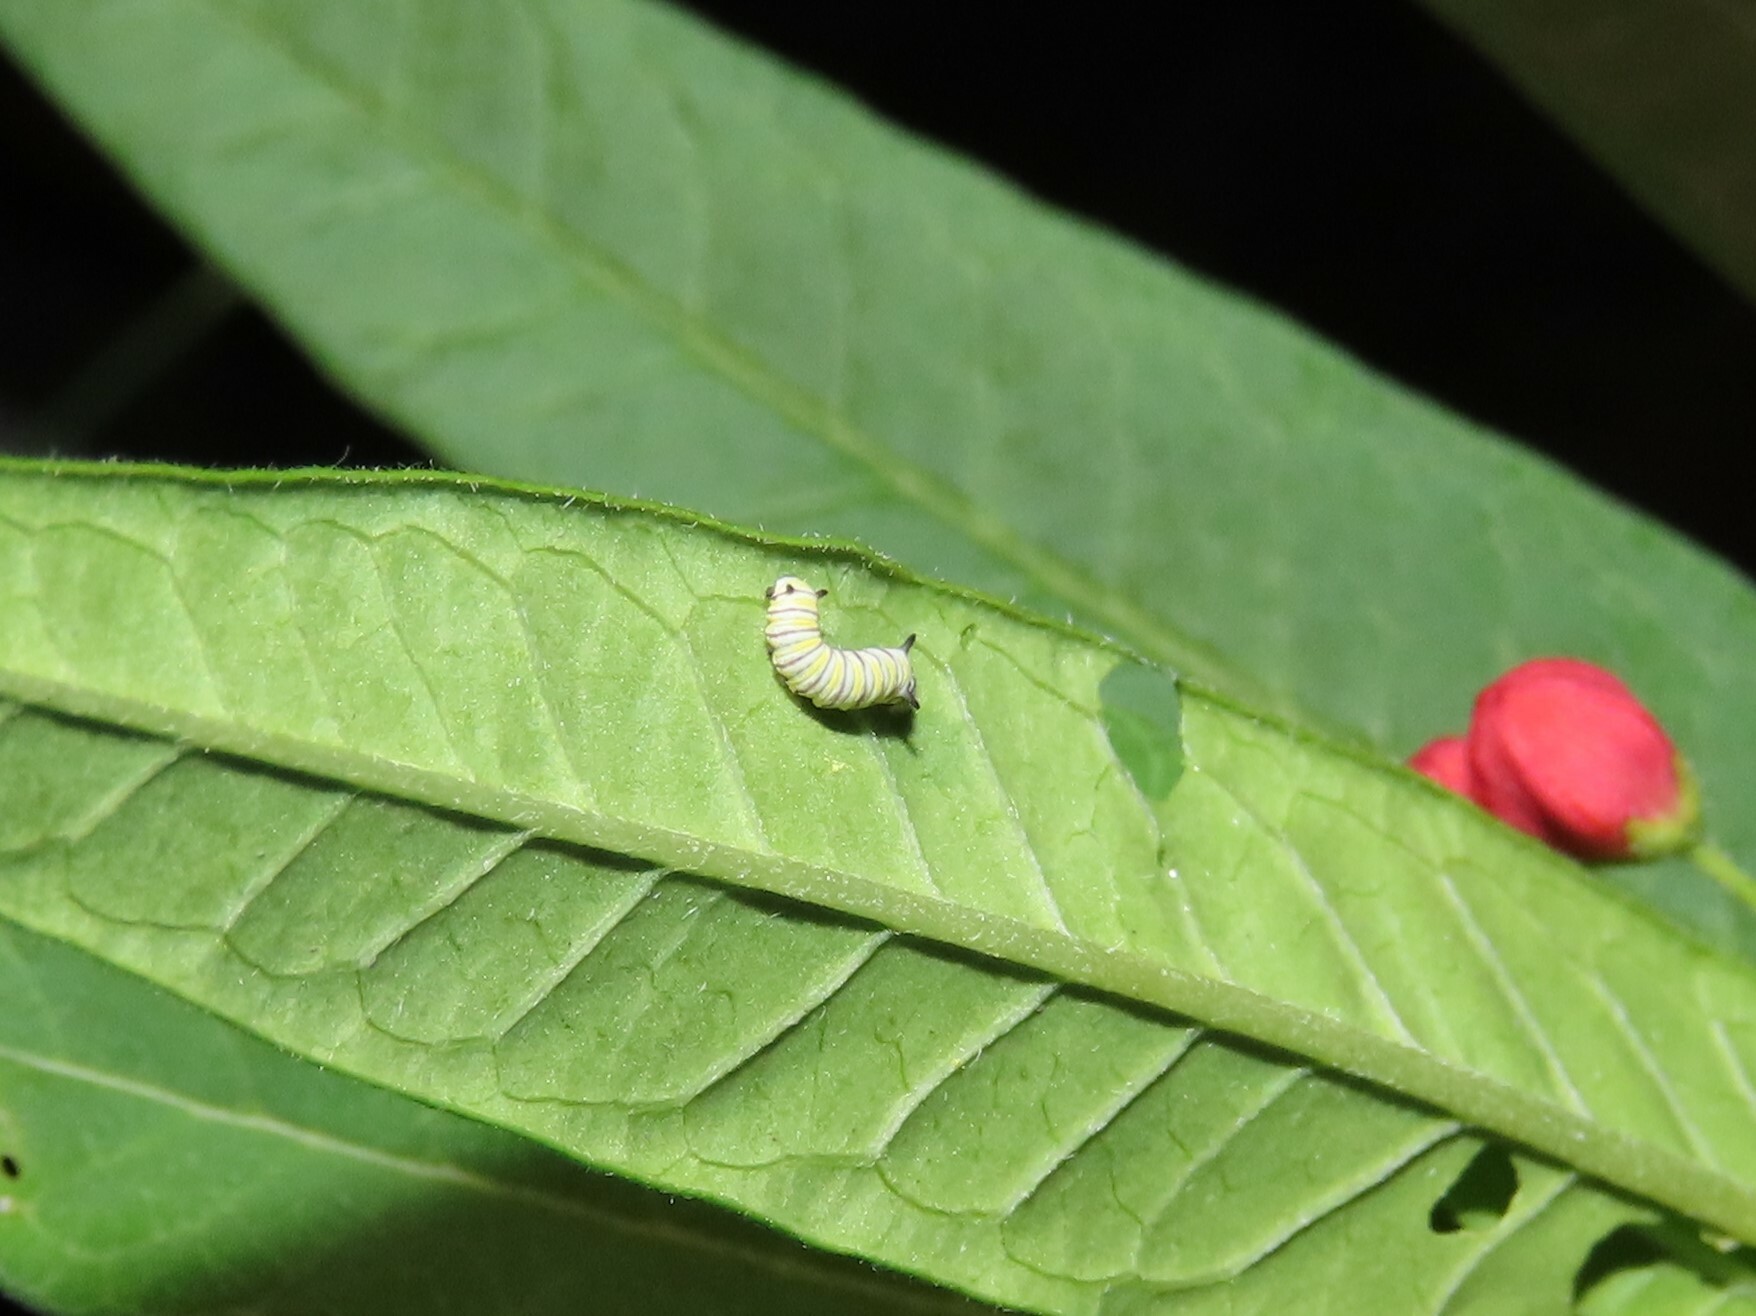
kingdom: Animalia
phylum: Arthropoda
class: Insecta
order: Lepidoptera
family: Nymphalidae
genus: Danaus
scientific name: Danaus plexippus
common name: Monarch
